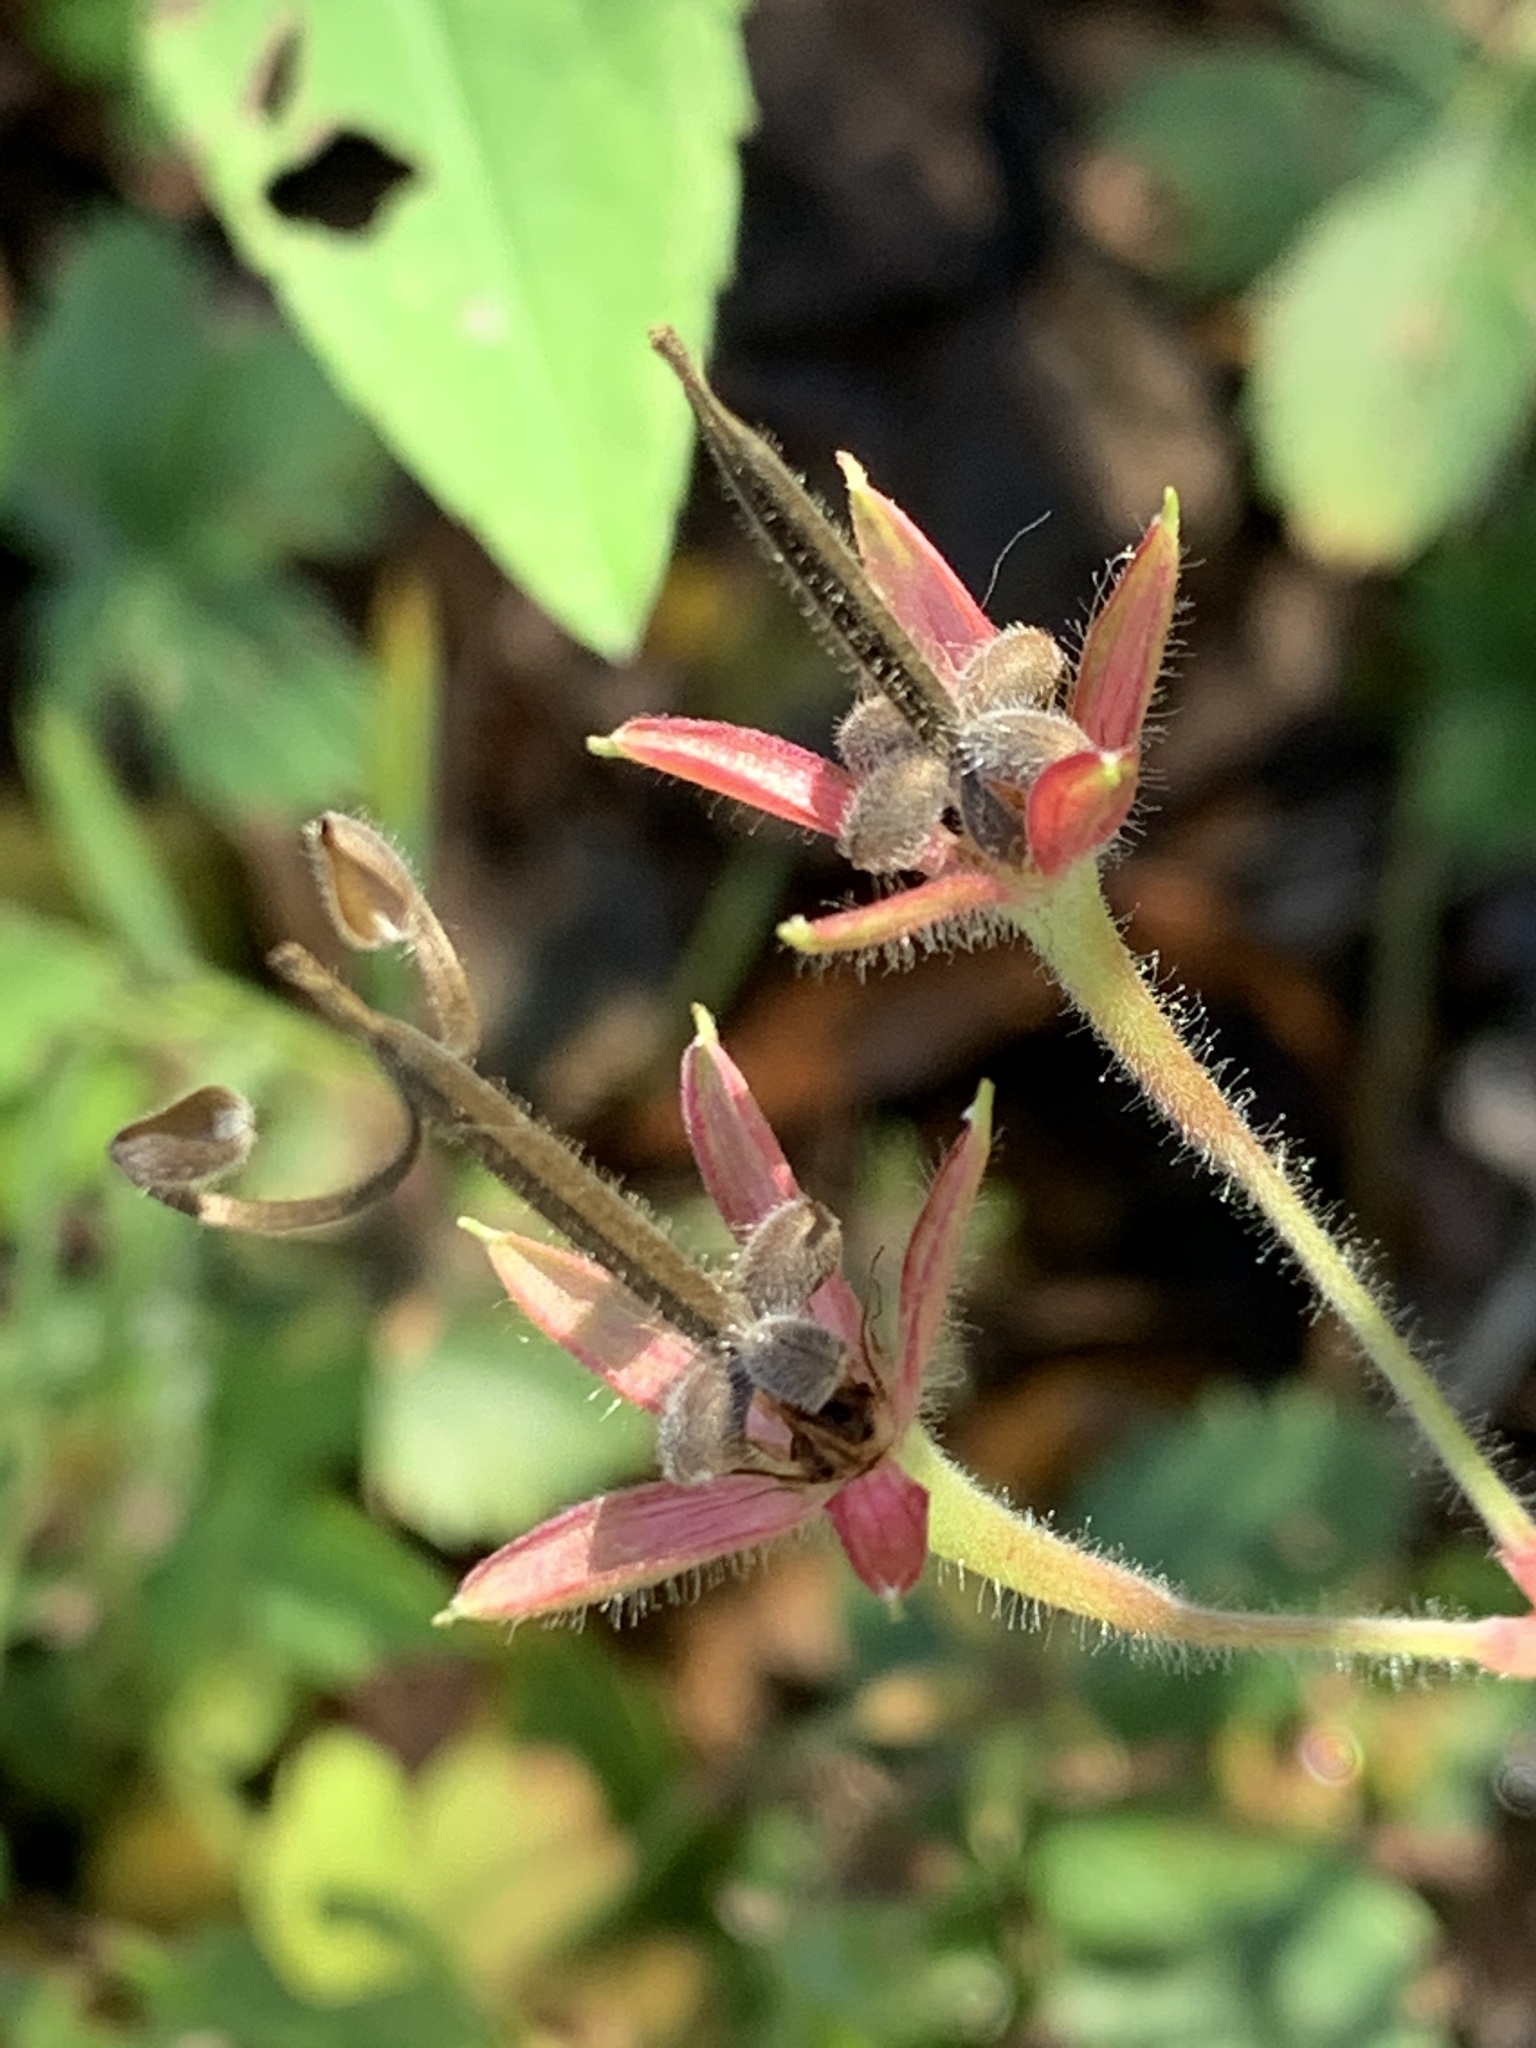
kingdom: Plantae
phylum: Tracheophyta
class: Magnoliopsida
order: Geraniales
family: Geraniaceae
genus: Geranium
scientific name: Geranium thunbergii
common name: Dewdrop crane's-bill
